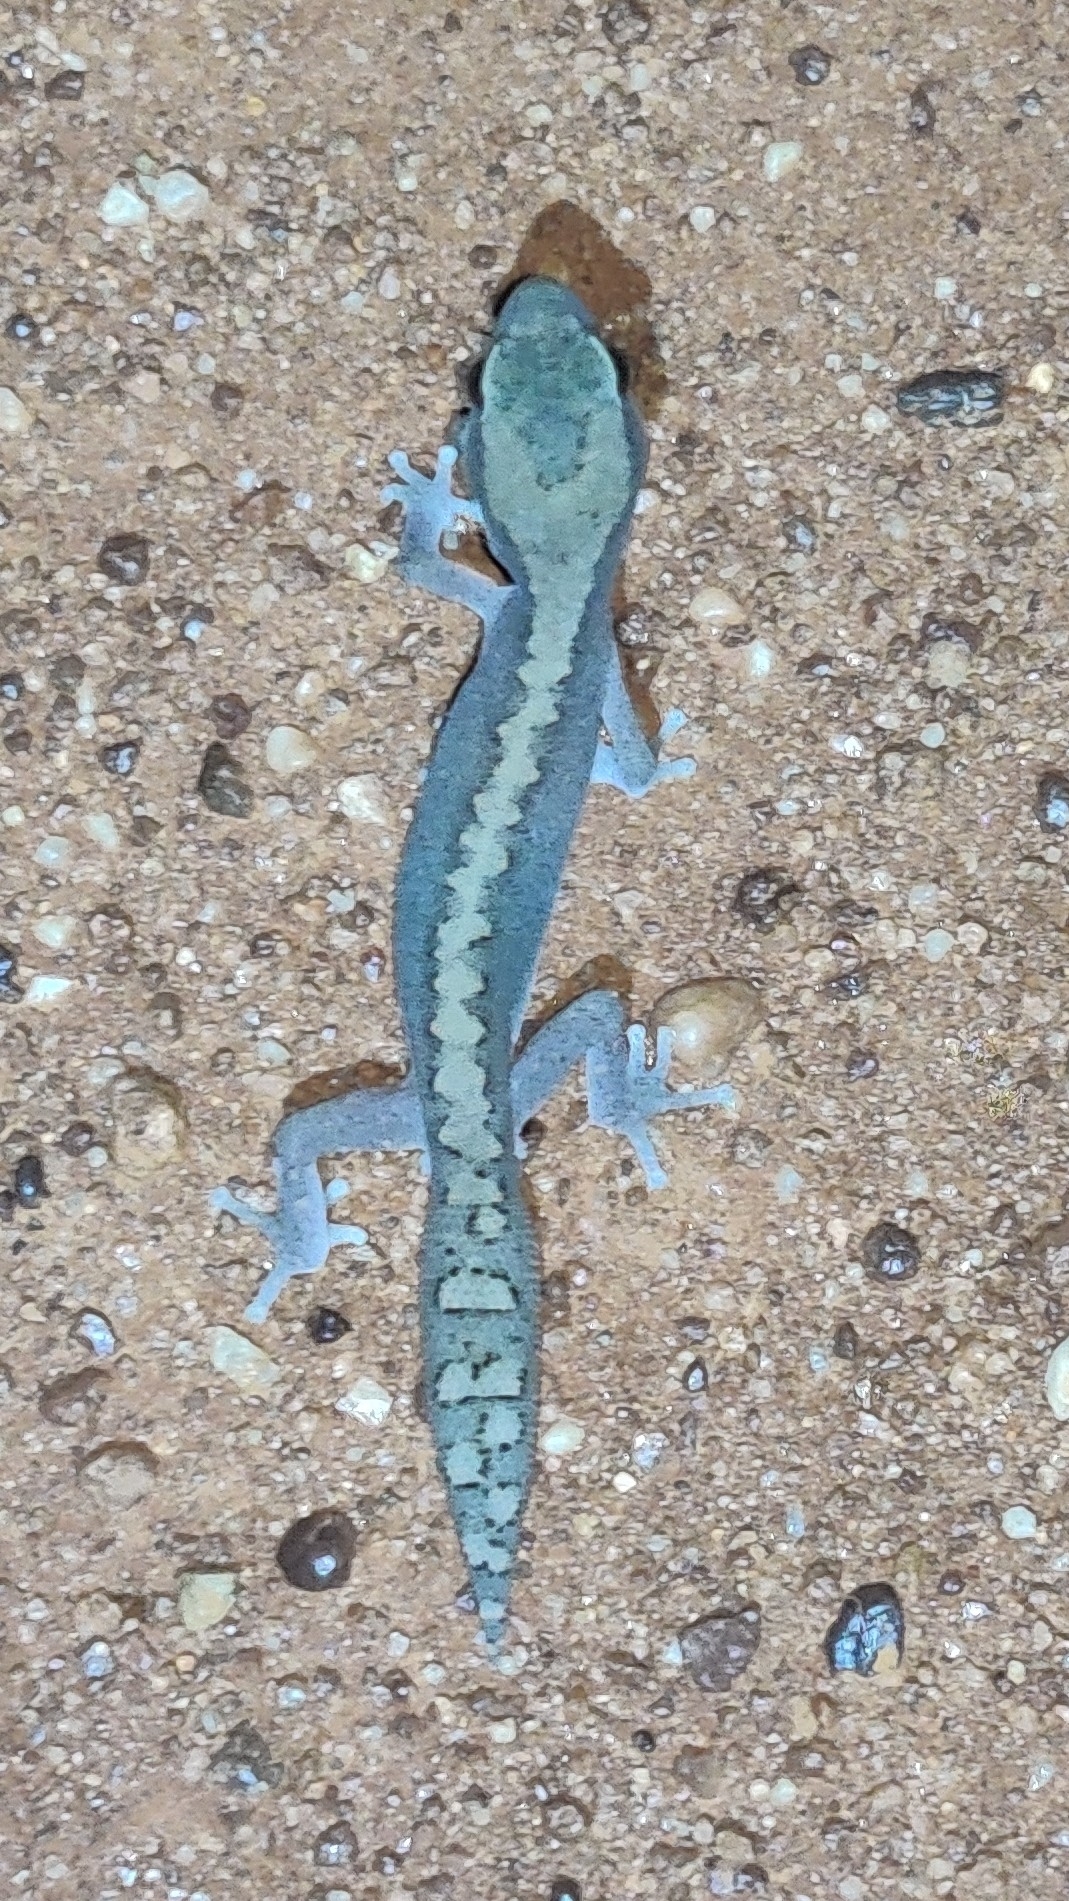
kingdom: Animalia
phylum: Chordata
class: Squamata
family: Diplodactylidae
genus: Diplodactylus
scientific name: Diplodactylus vittatus
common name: Eastern stone gecko
